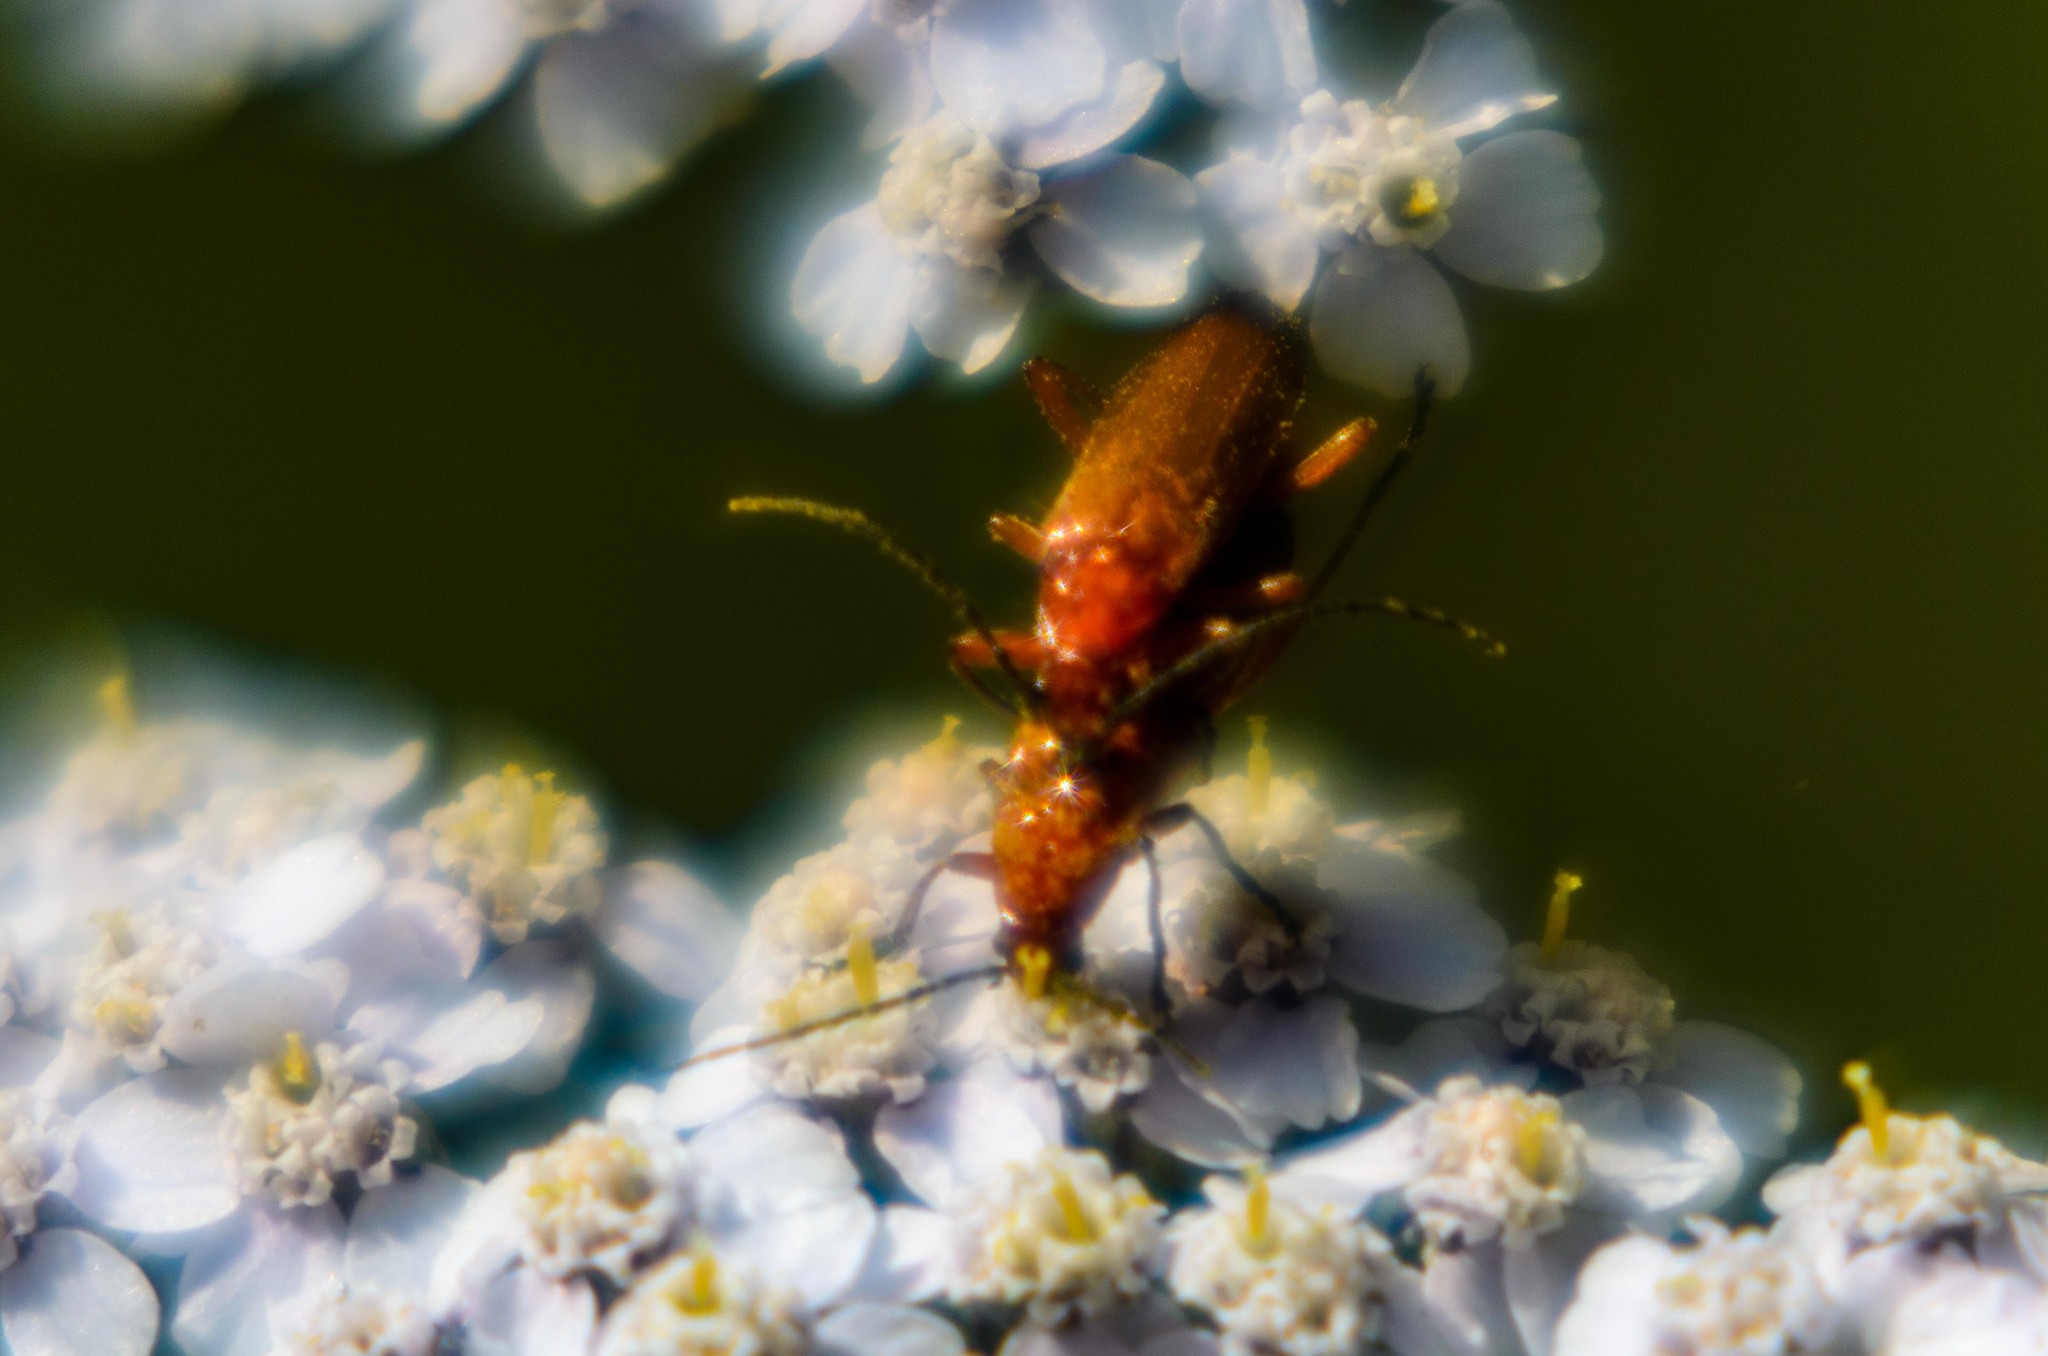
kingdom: Animalia
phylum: Arthropoda
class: Insecta
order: Coleoptera
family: Cantharidae
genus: Rhagonycha
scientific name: Rhagonycha fulva
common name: Common red soldier beetle
